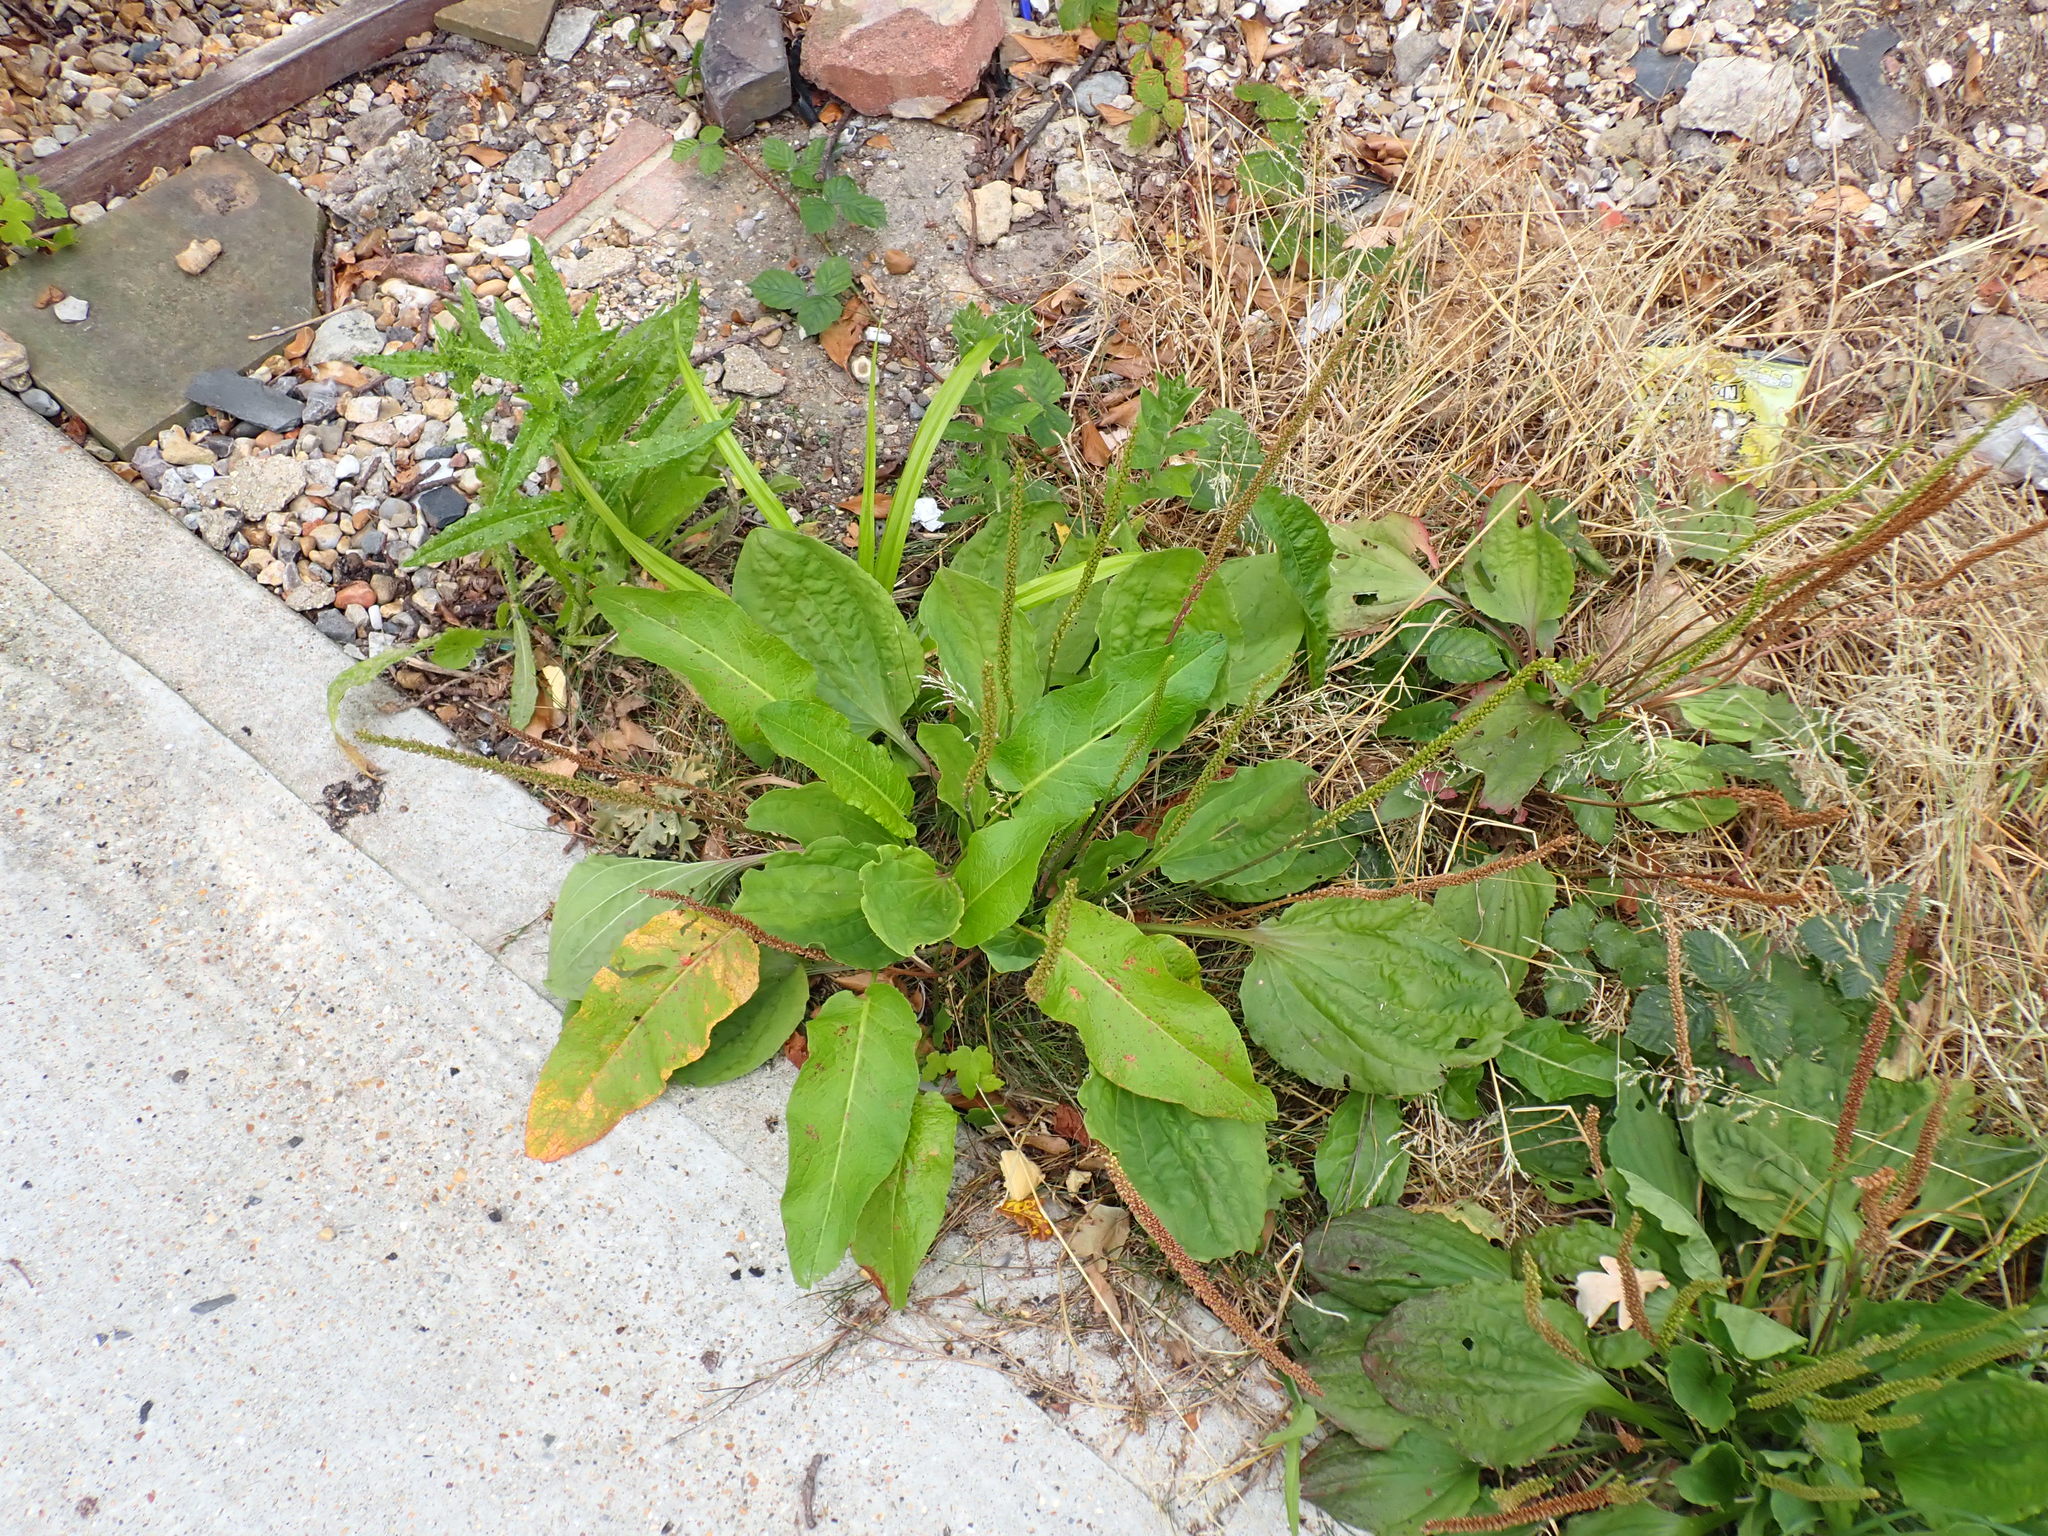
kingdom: Plantae
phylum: Tracheophyta
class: Magnoliopsida
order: Lamiales
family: Plantaginaceae
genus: Plantago
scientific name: Plantago major
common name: Common plantain
